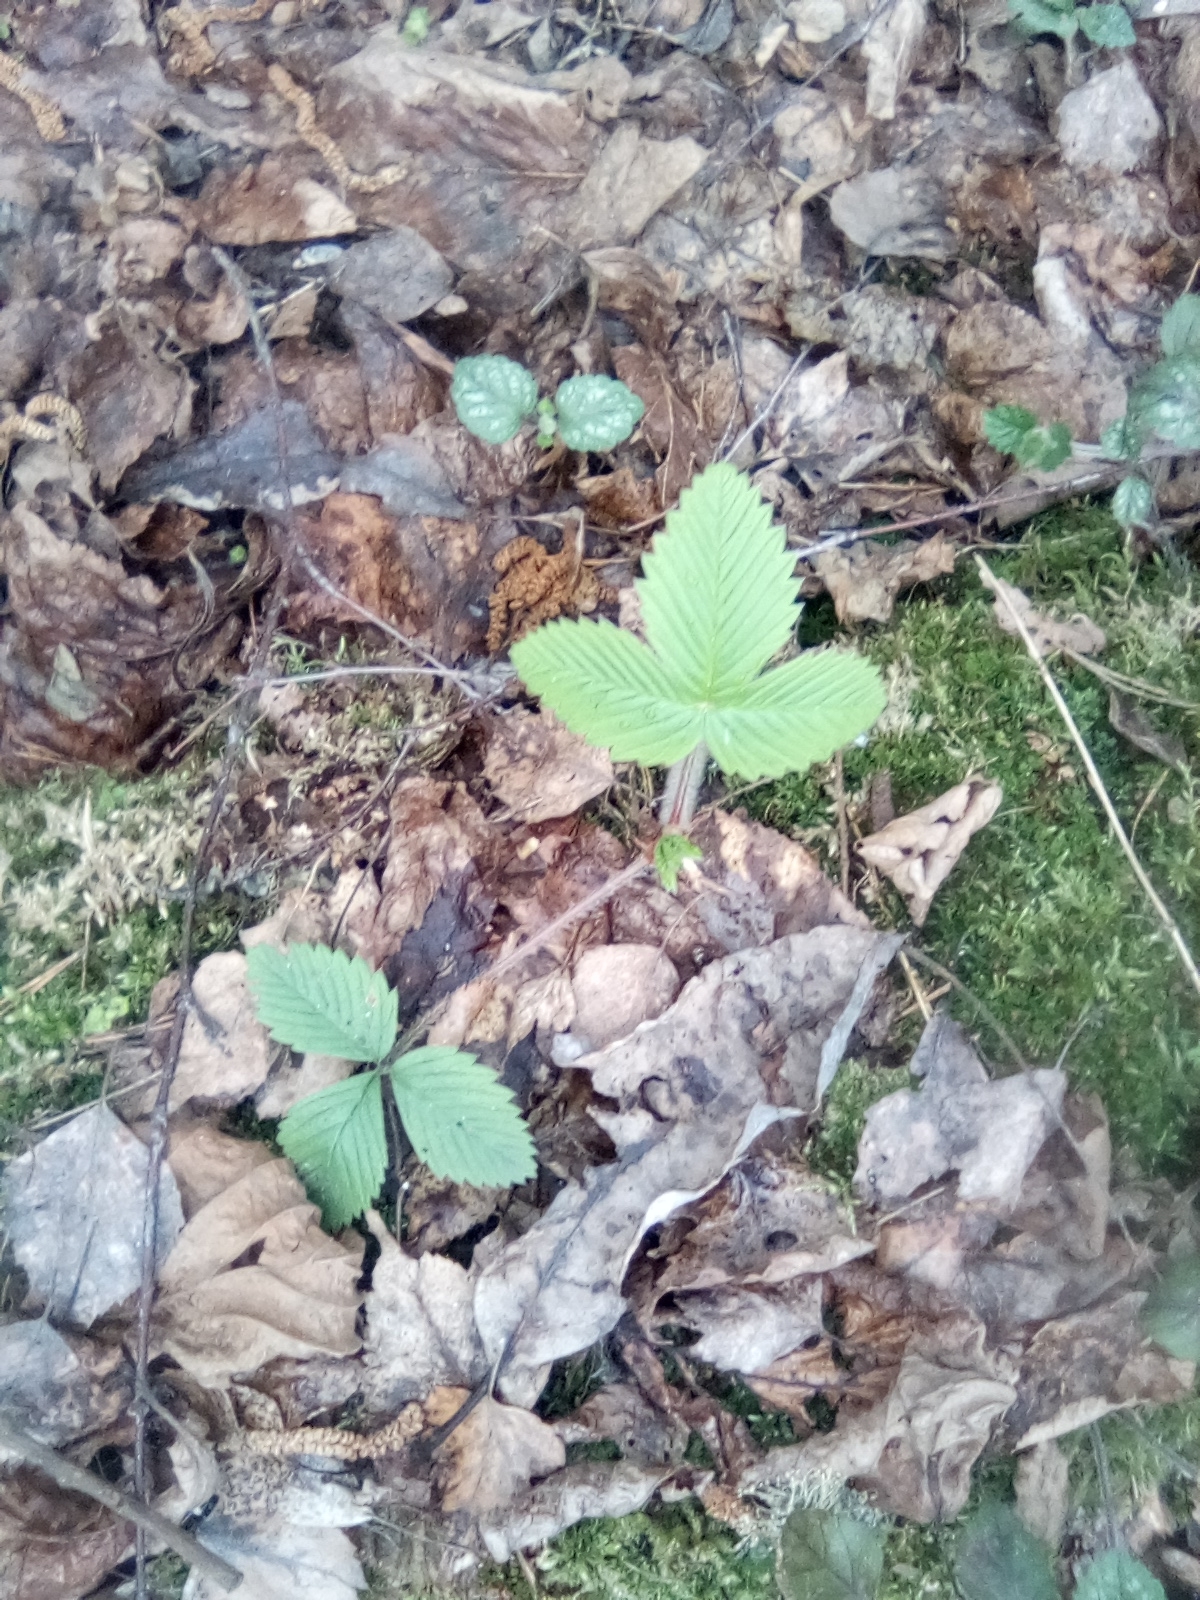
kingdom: Plantae
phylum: Tracheophyta
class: Magnoliopsida
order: Rosales
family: Rosaceae
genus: Fragaria
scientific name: Fragaria vesca
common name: Wild strawberry
